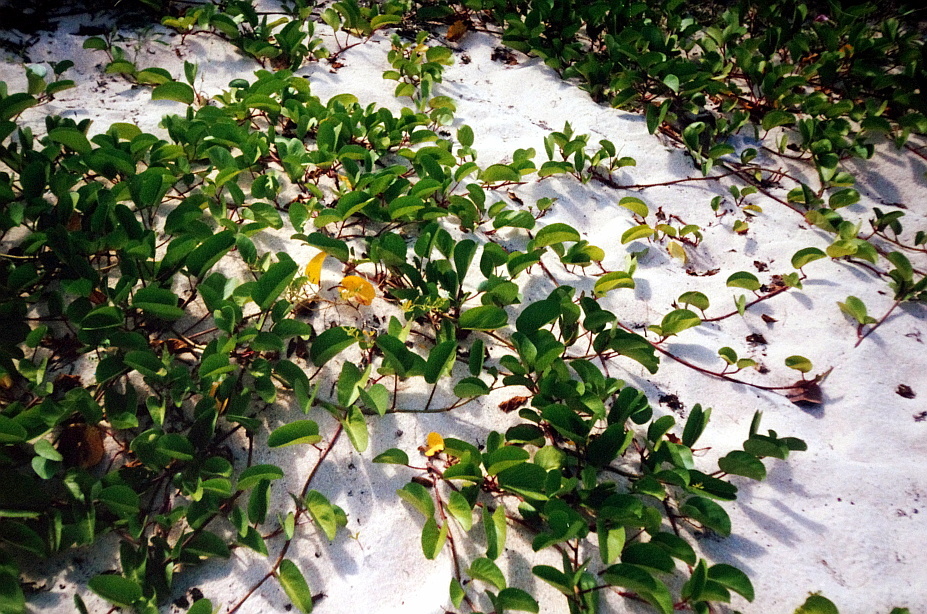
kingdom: Plantae
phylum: Tracheophyta
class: Magnoliopsida
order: Solanales
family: Convolvulaceae
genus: Ipomoea
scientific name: Ipomoea pes-caprae
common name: Beach morning glory
